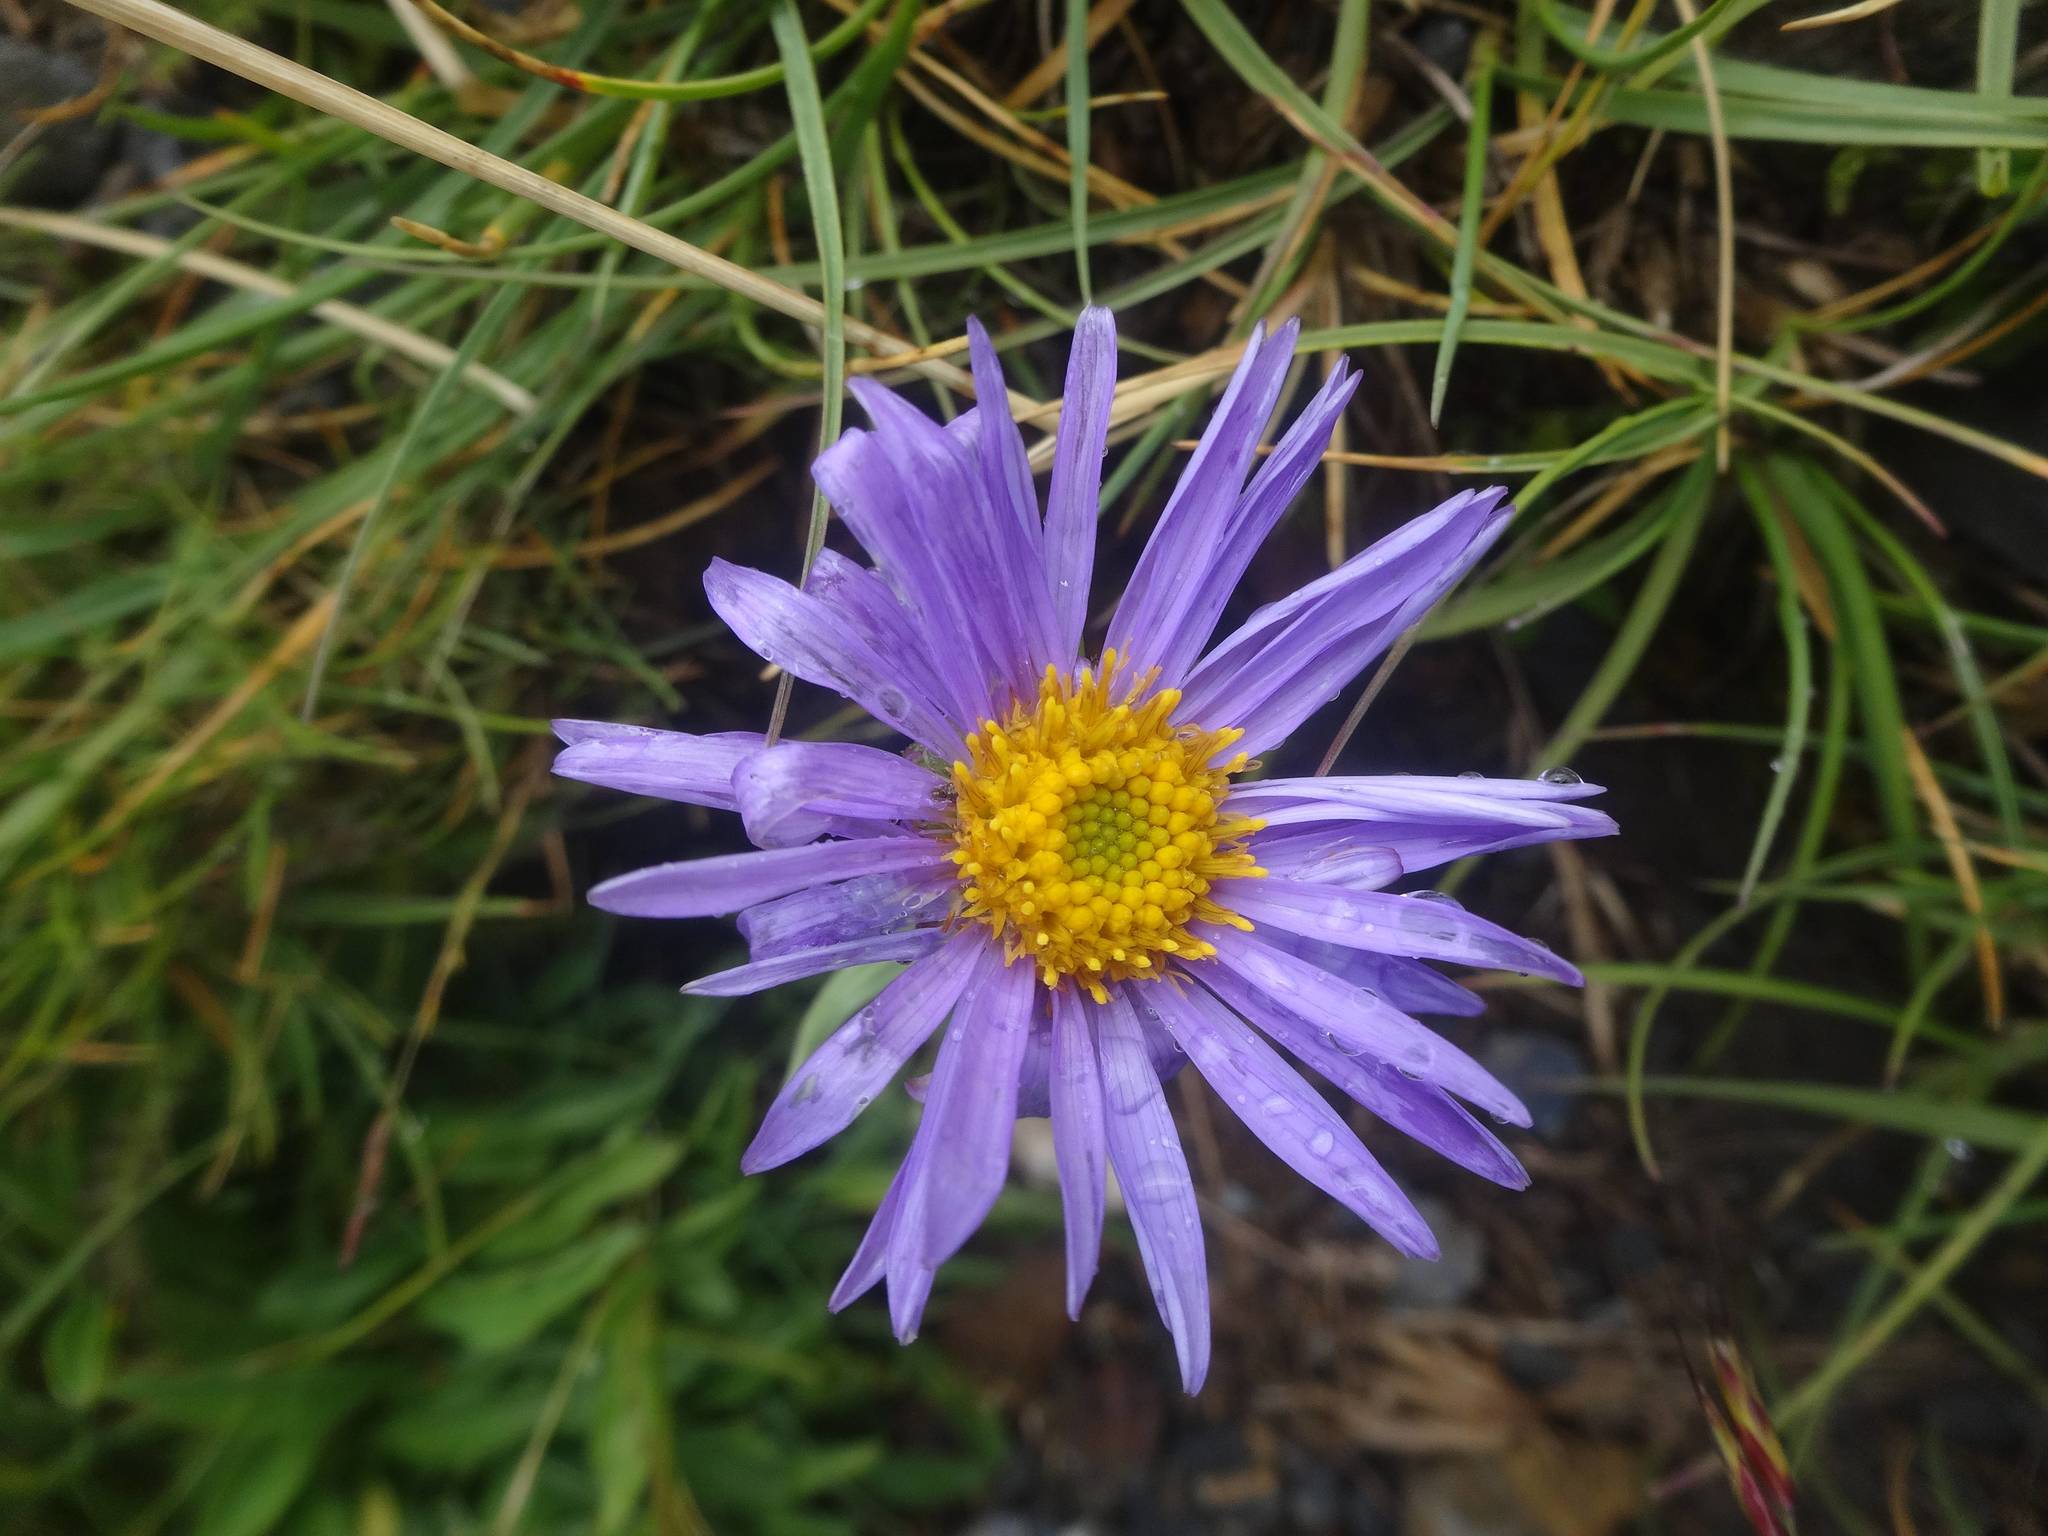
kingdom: Plantae
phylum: Tracheophyta
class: Magnoliopsida
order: Asterales
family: Asteraceae
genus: Aster
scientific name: Aster alpinus
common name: Alpine aster
